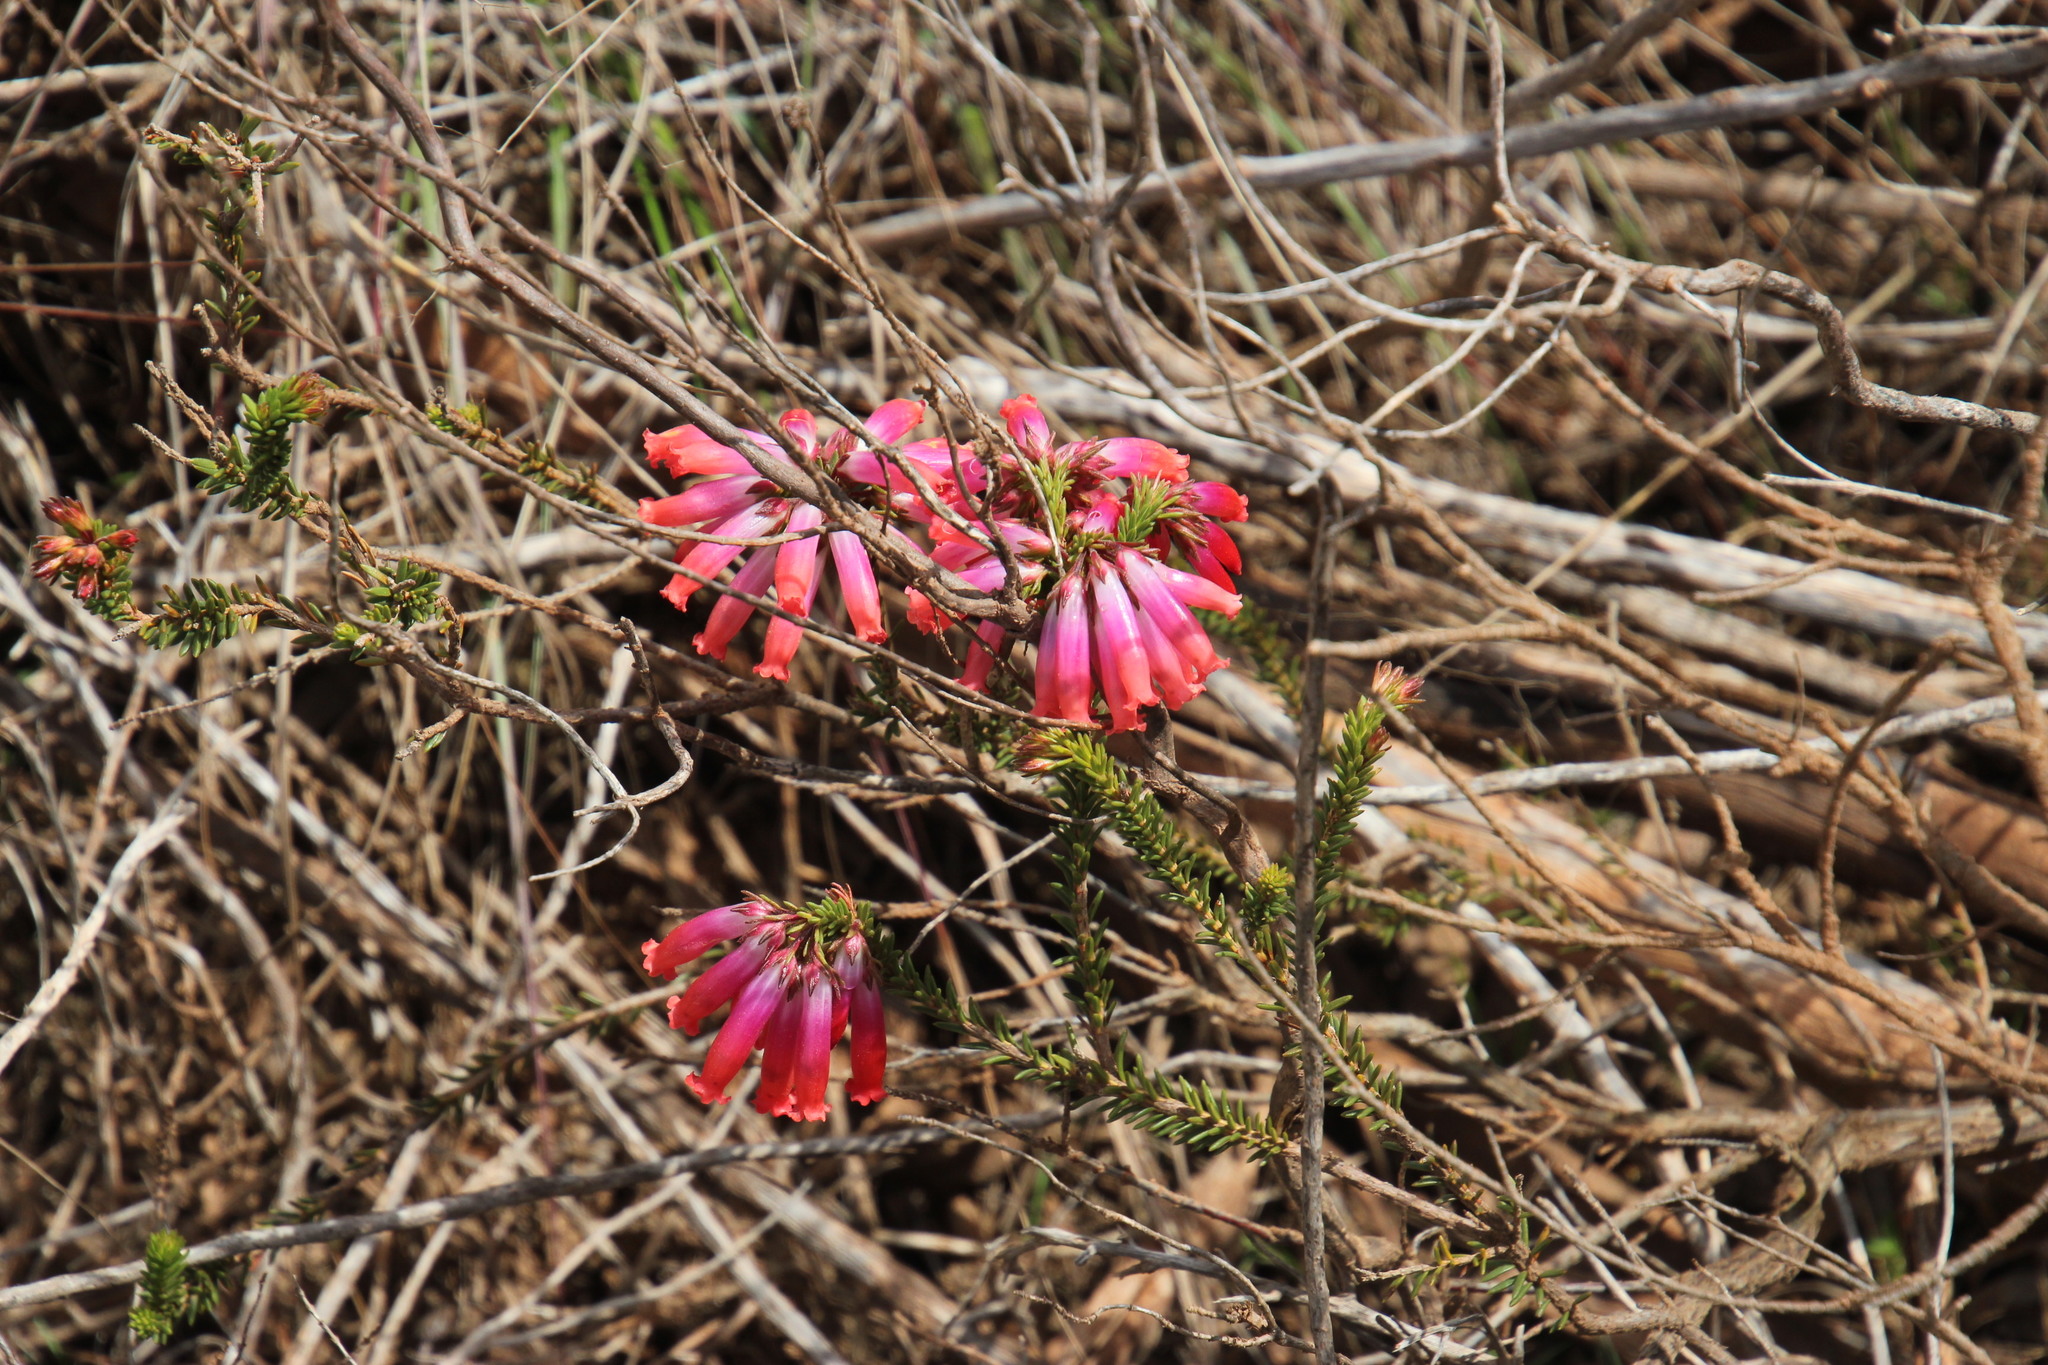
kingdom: Plantae
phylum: Tracheophyta
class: Magnoliopsida
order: Ericales
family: Ericaceae
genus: Erica
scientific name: Erica regia
